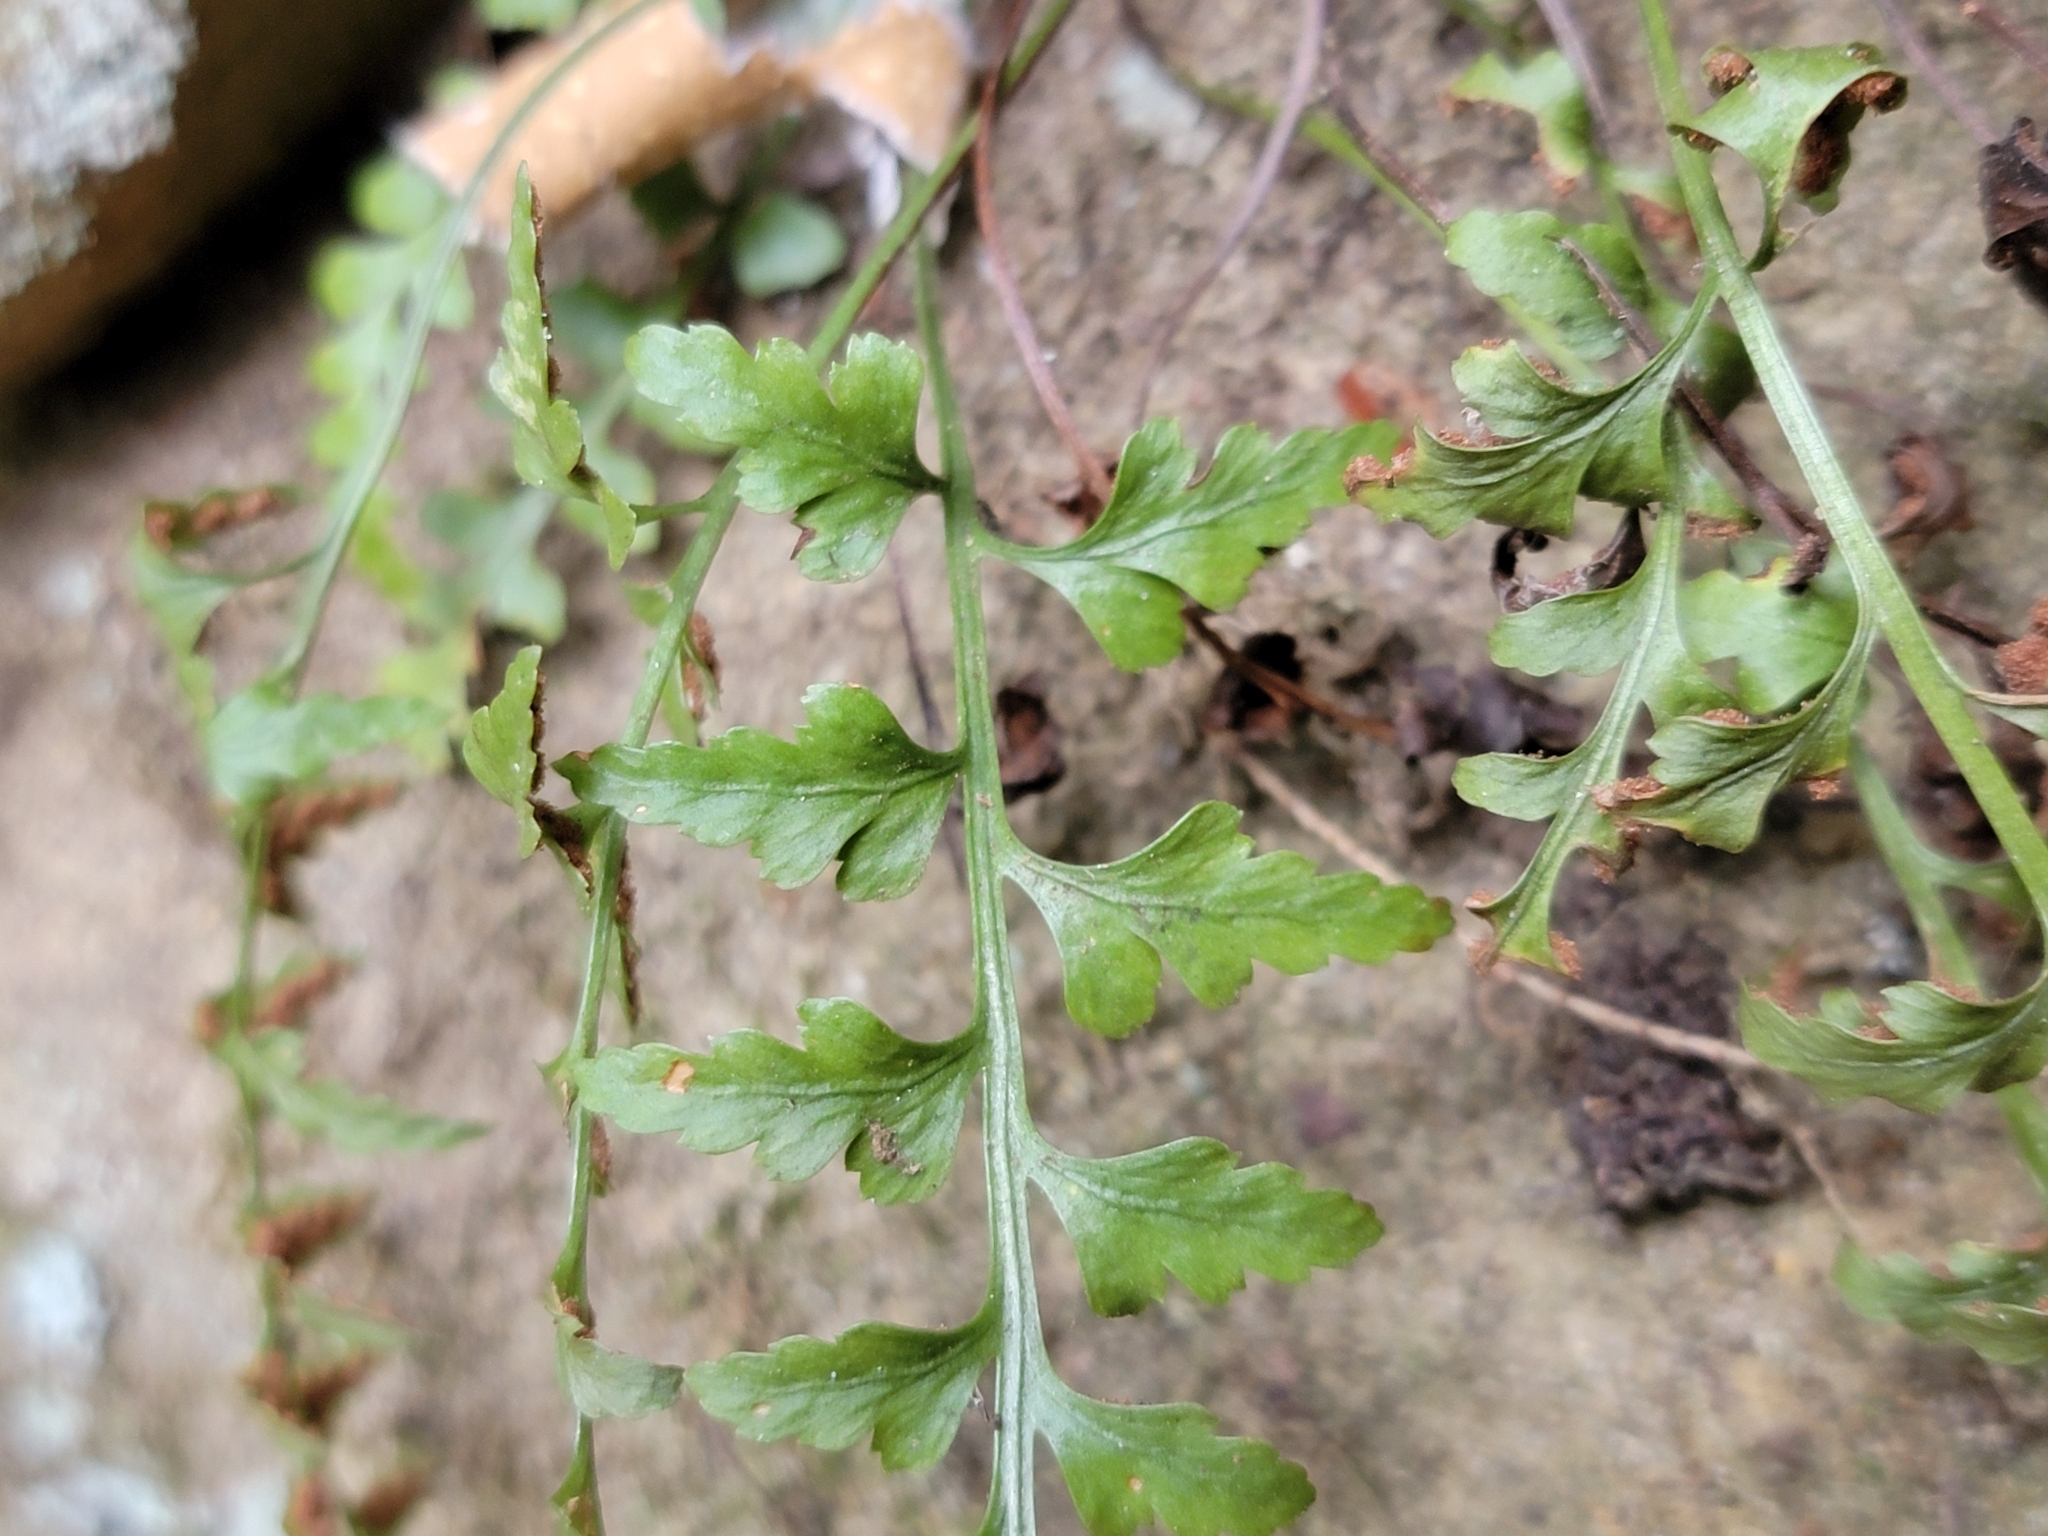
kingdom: Plantae
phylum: Tracheophyta
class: Polypodiopsida
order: Polypodiales
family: Aspleniaceae
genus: Asplenium
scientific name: Asplenium trudellii
